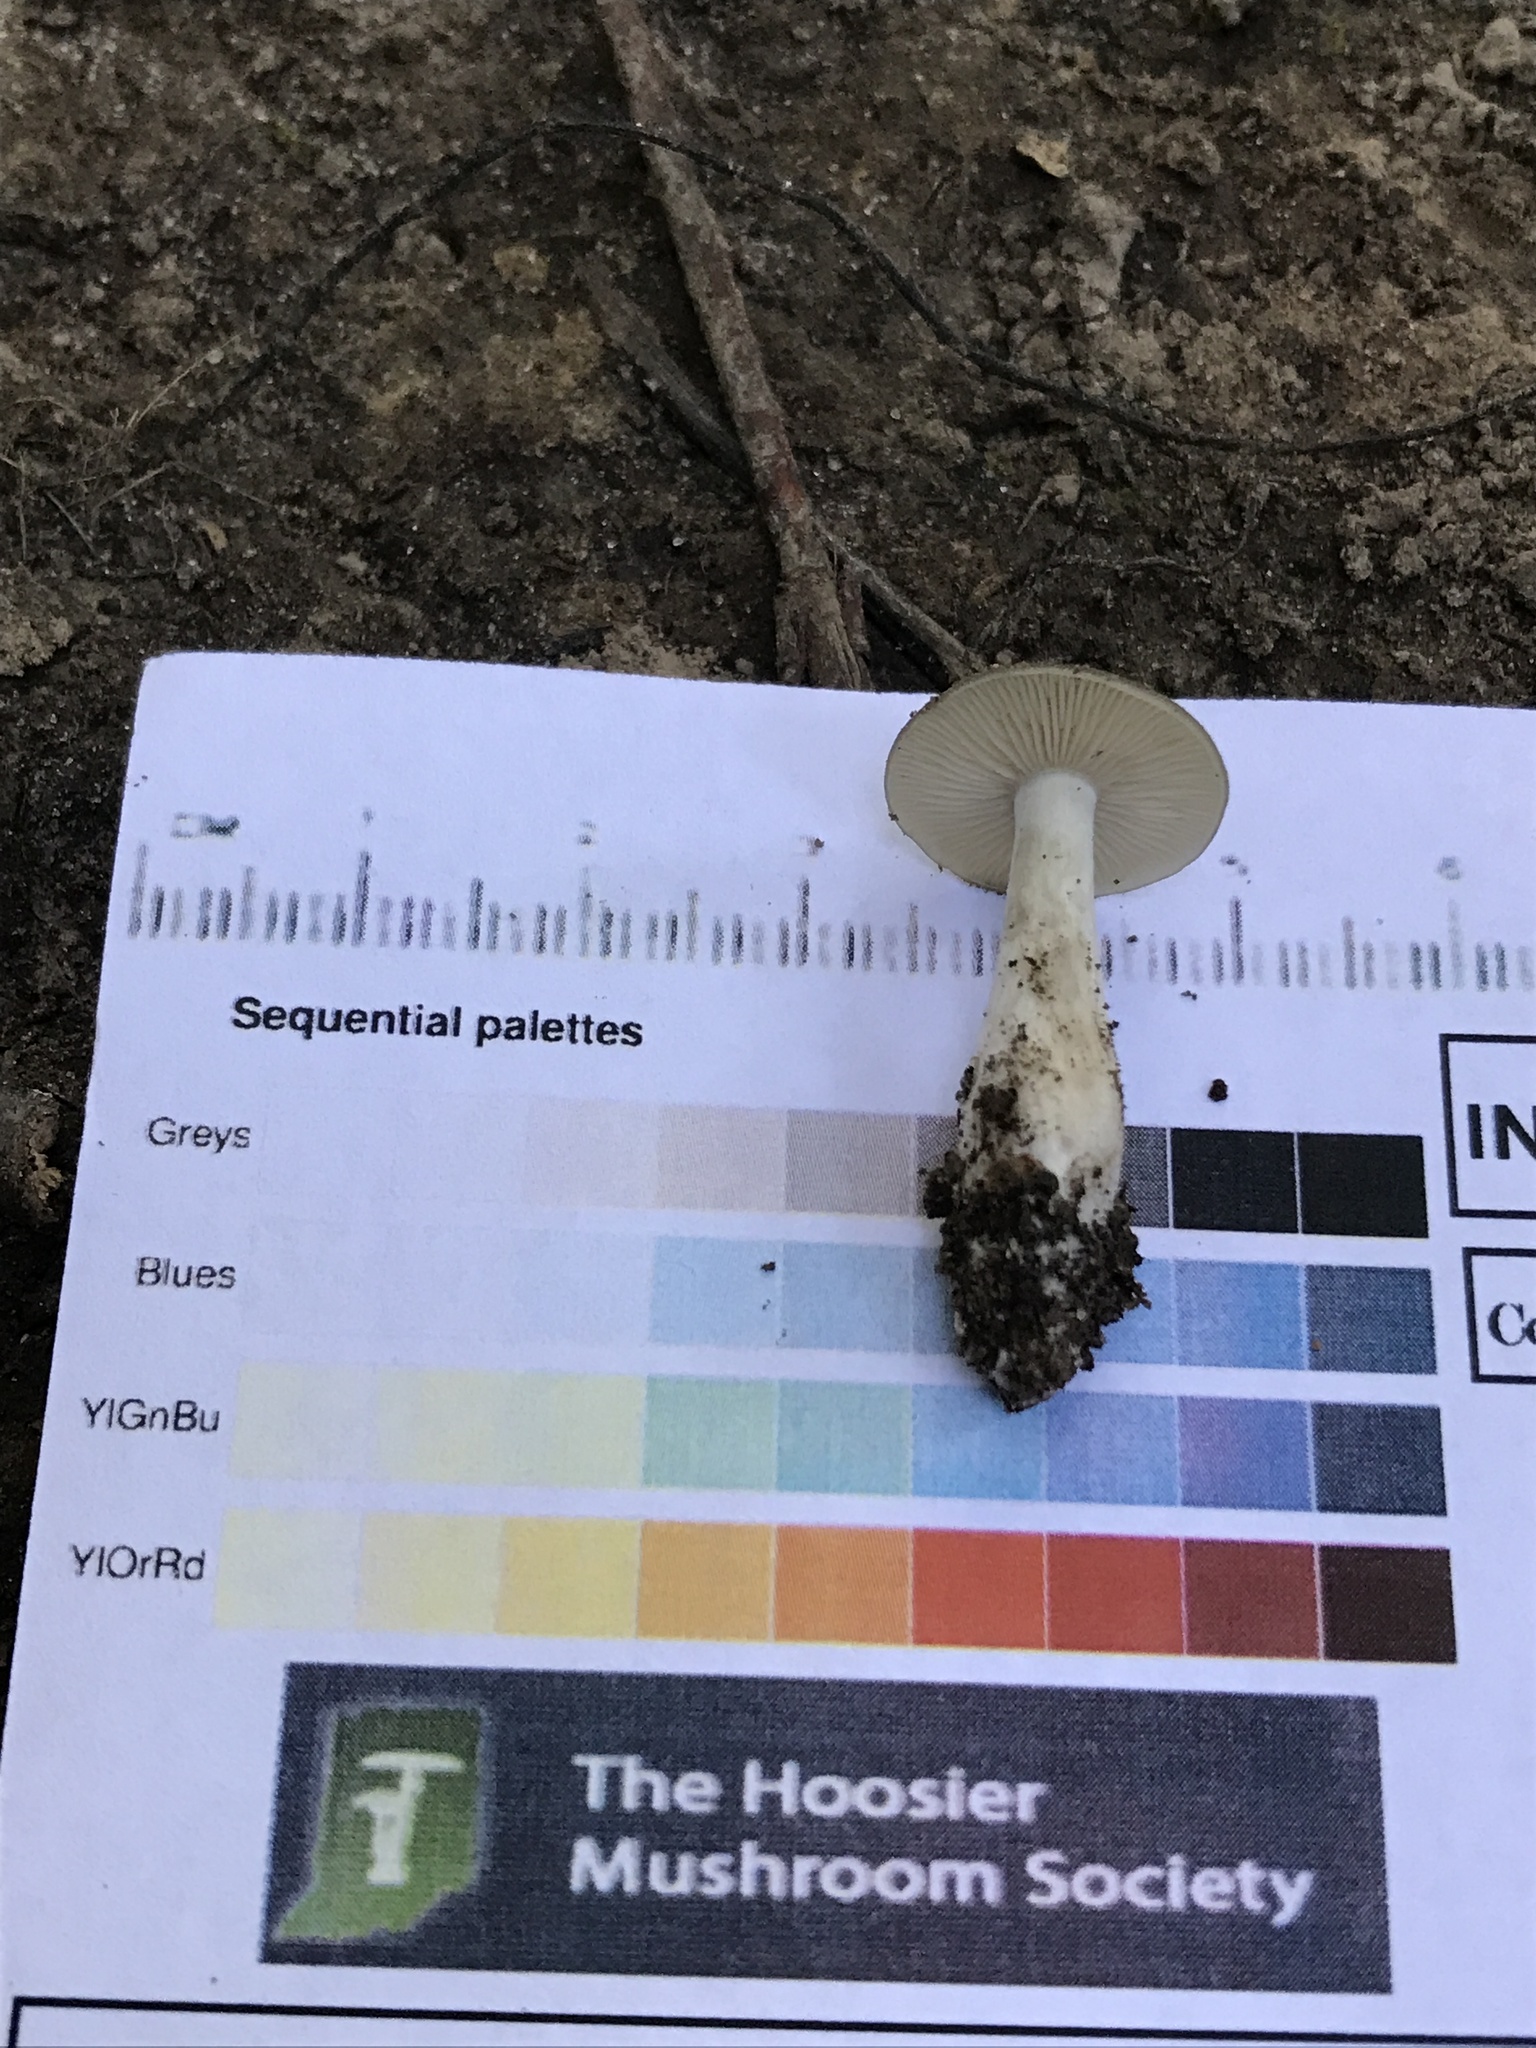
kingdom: Fungi
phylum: Basidiomycota
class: Agaricomycetes
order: Agaricales
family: Entolomataceae
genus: Entoloma
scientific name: Entoloma flavifolium
